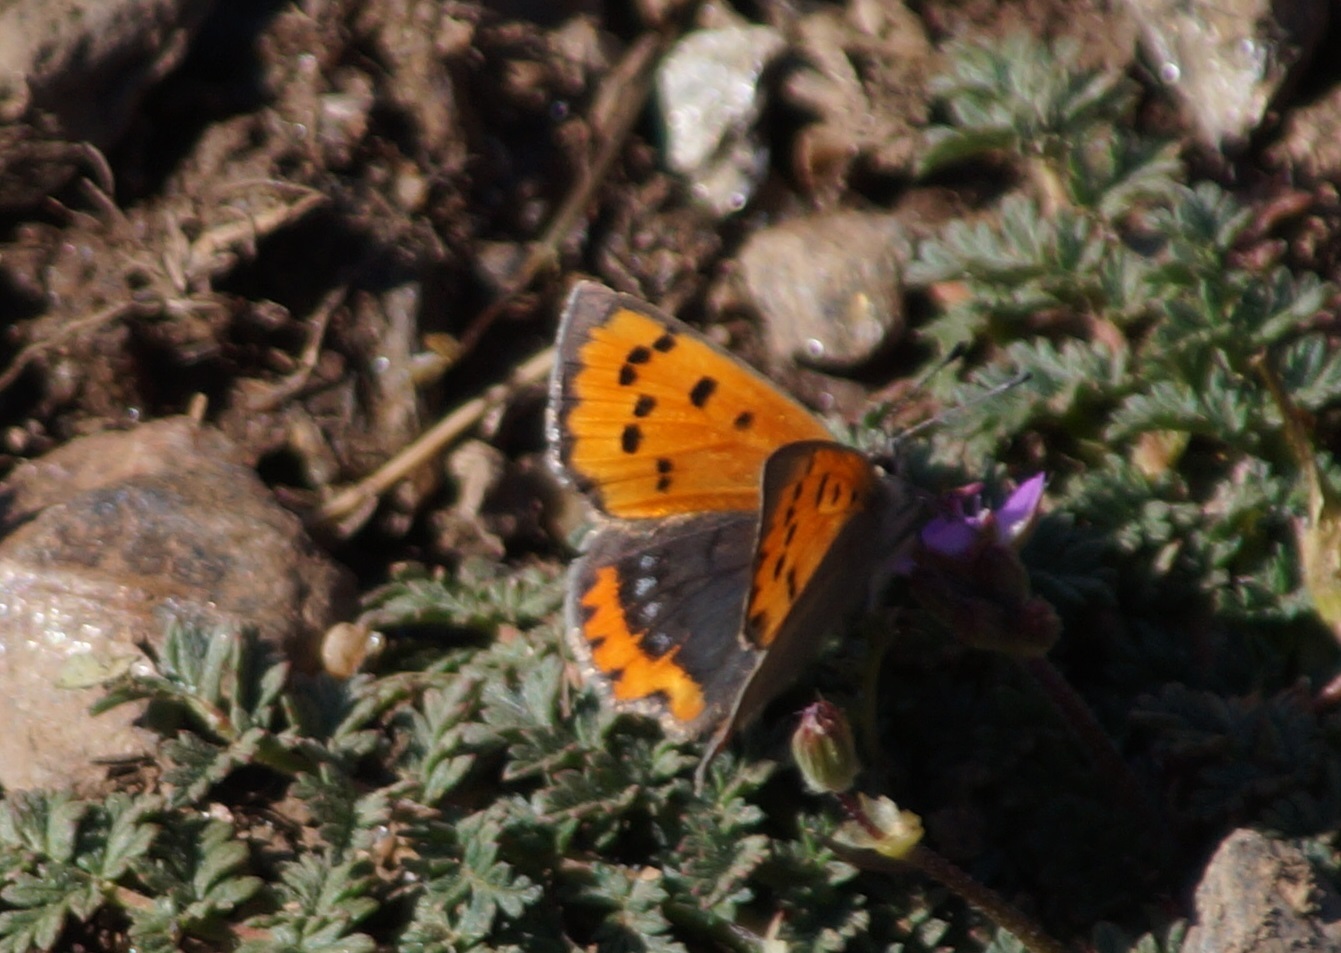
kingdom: Animalia
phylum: Arthropoda
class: Insecta
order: Lepidoptera
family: Lycaenidae
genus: Lycaena
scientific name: Lycaena phlaeas
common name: Small copper
